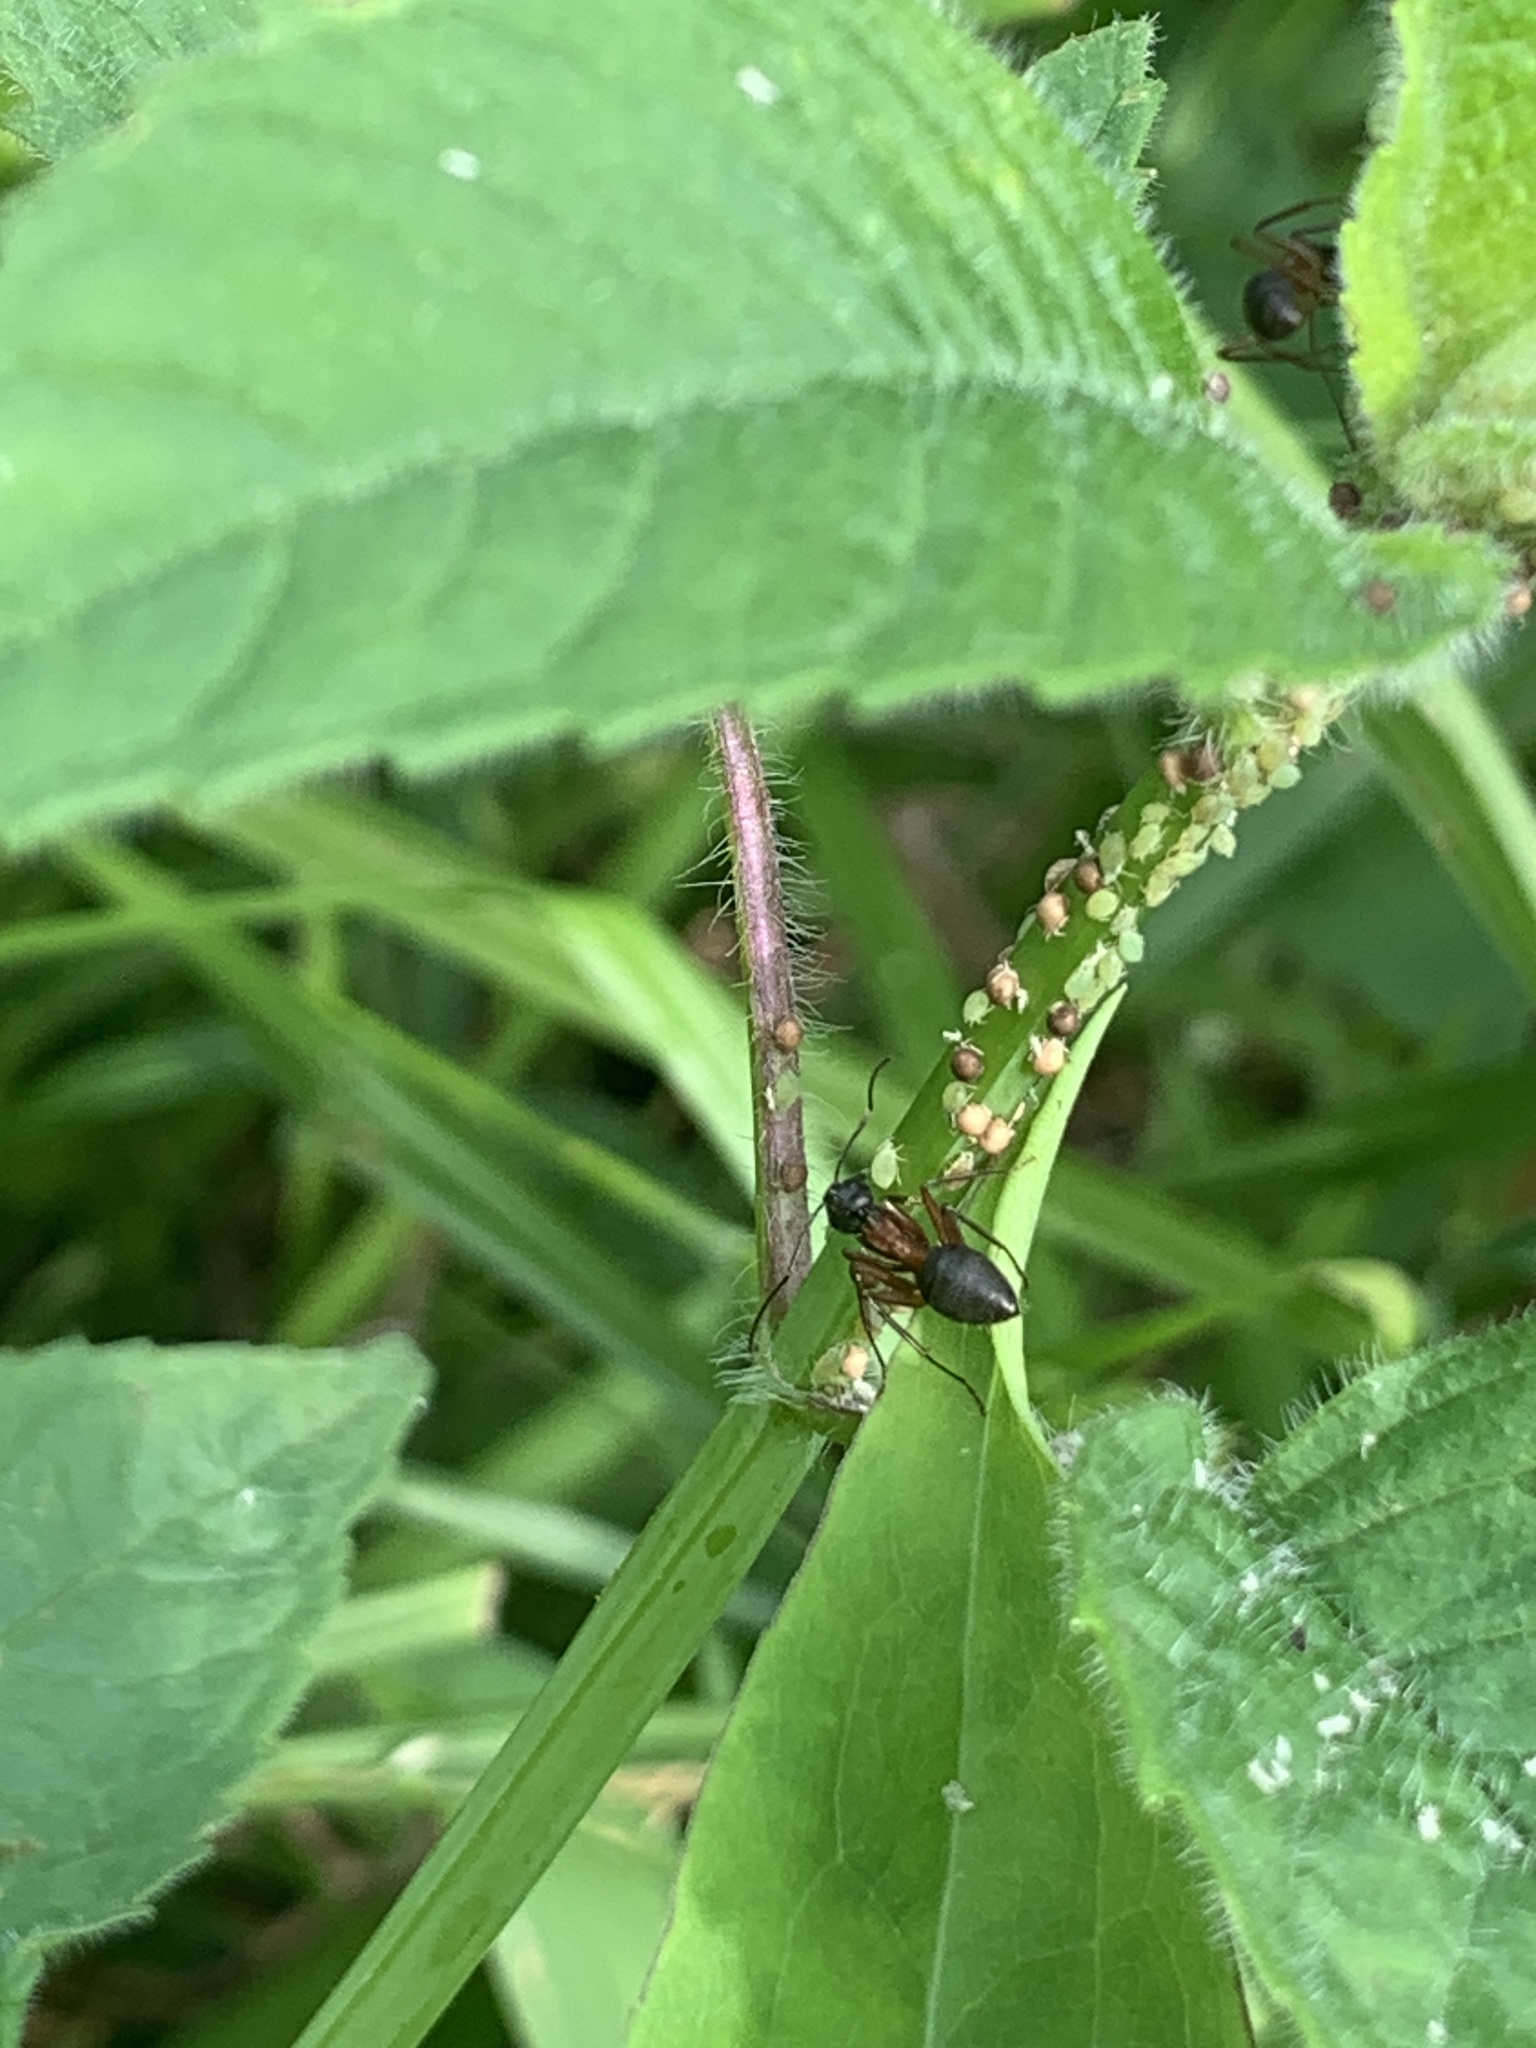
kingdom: Animalia
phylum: Arthropoda
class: Insecta
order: Hymenoptera
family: Formicidae
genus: Camponotus
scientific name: Camponotus chromaiodes
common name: Red carpenter ant
